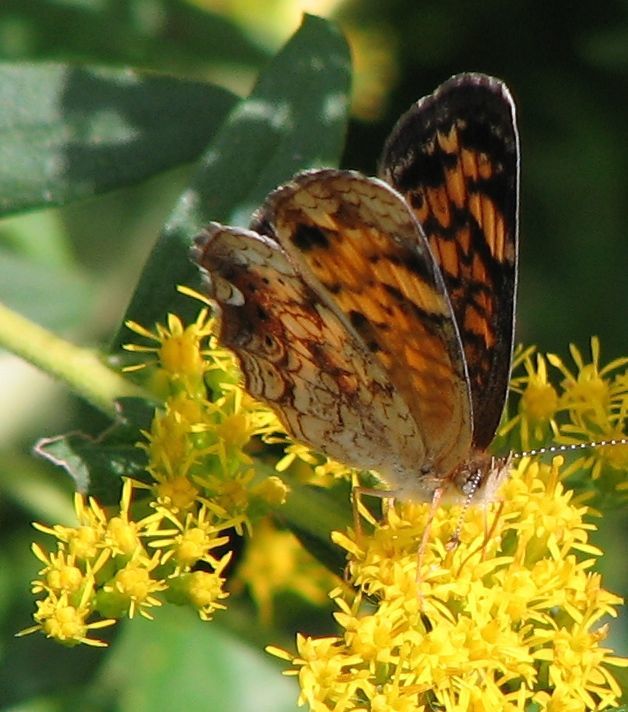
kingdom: Animalia
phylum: Arthropoda
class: Insecta
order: Lepidoptera
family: Nymphalidae
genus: Phyciodes
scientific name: Phyciodes tharos
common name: Pearl crescent
